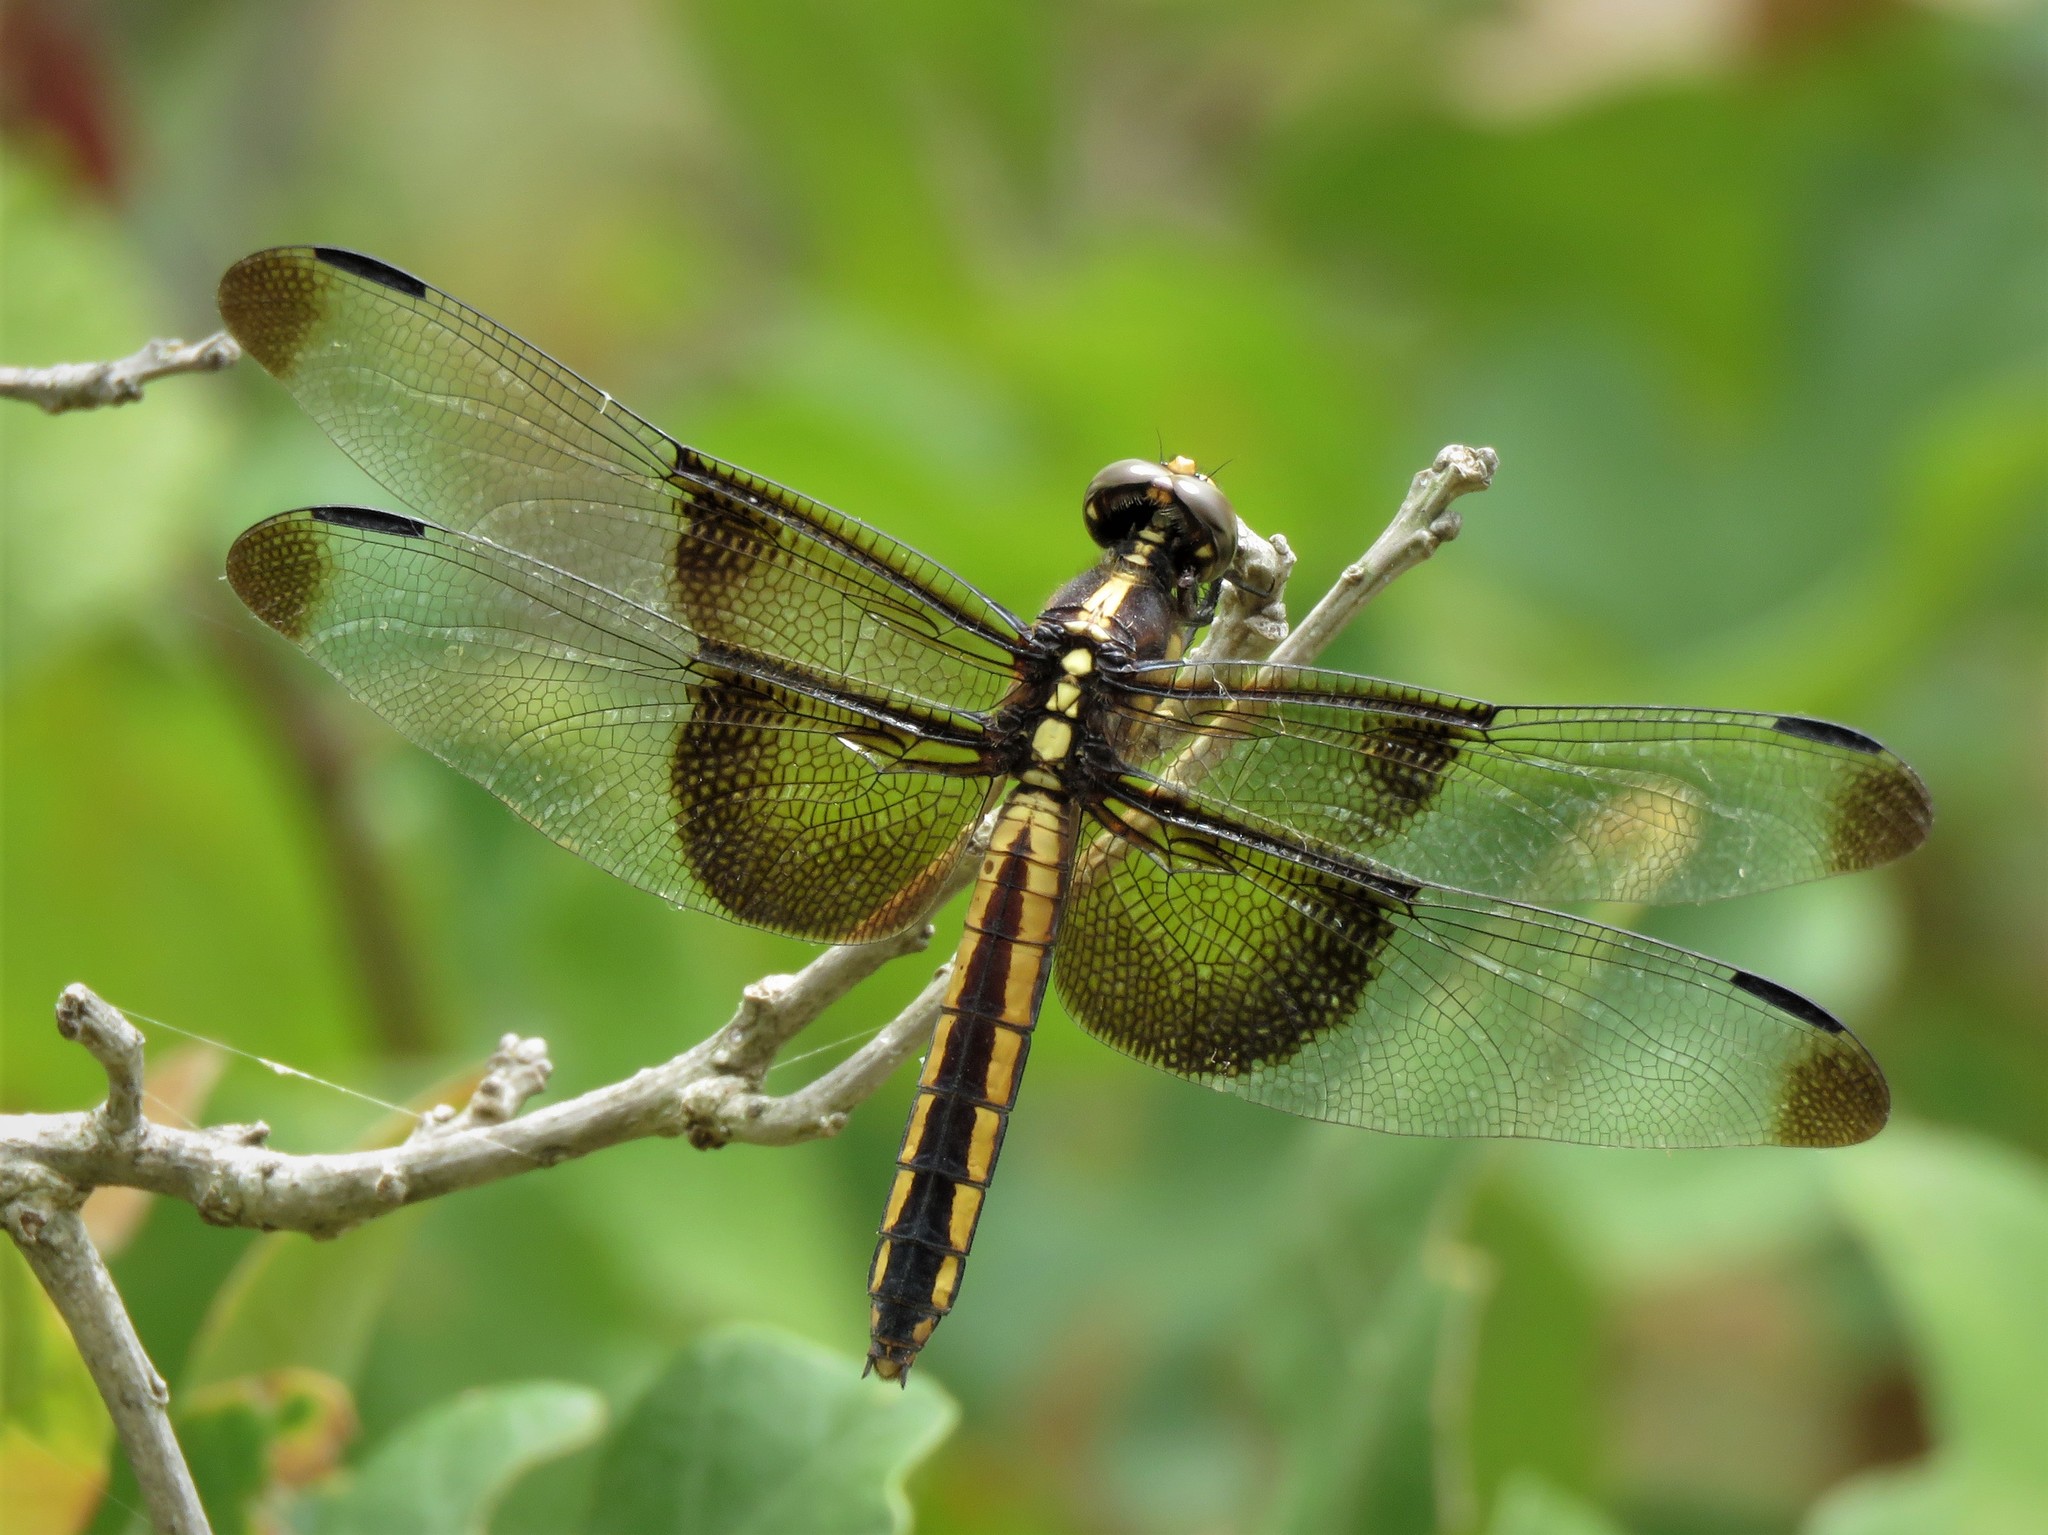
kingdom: Animalia
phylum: Arthropoda
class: Insecta
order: Odonata
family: Libellulidae
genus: Libellula
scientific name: Libellula luctuosa
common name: Widow skimmer
